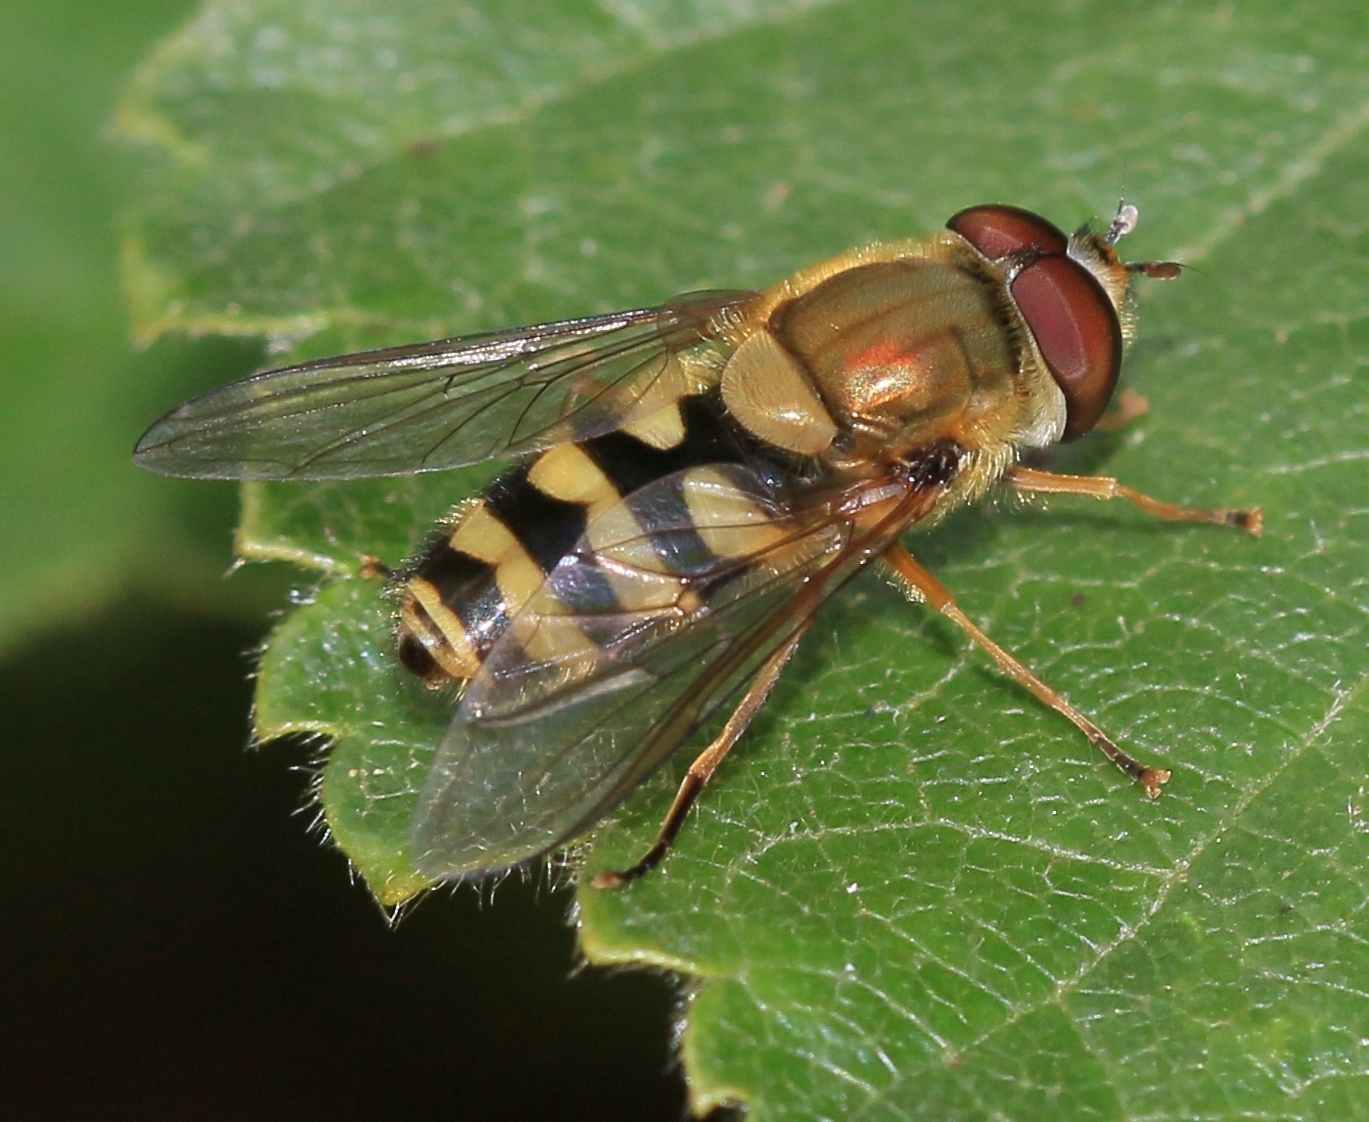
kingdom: Animalia
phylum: Arthropoda
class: Insecta
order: Diptera
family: Syrphidae
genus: Syrphus
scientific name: Syrphus
